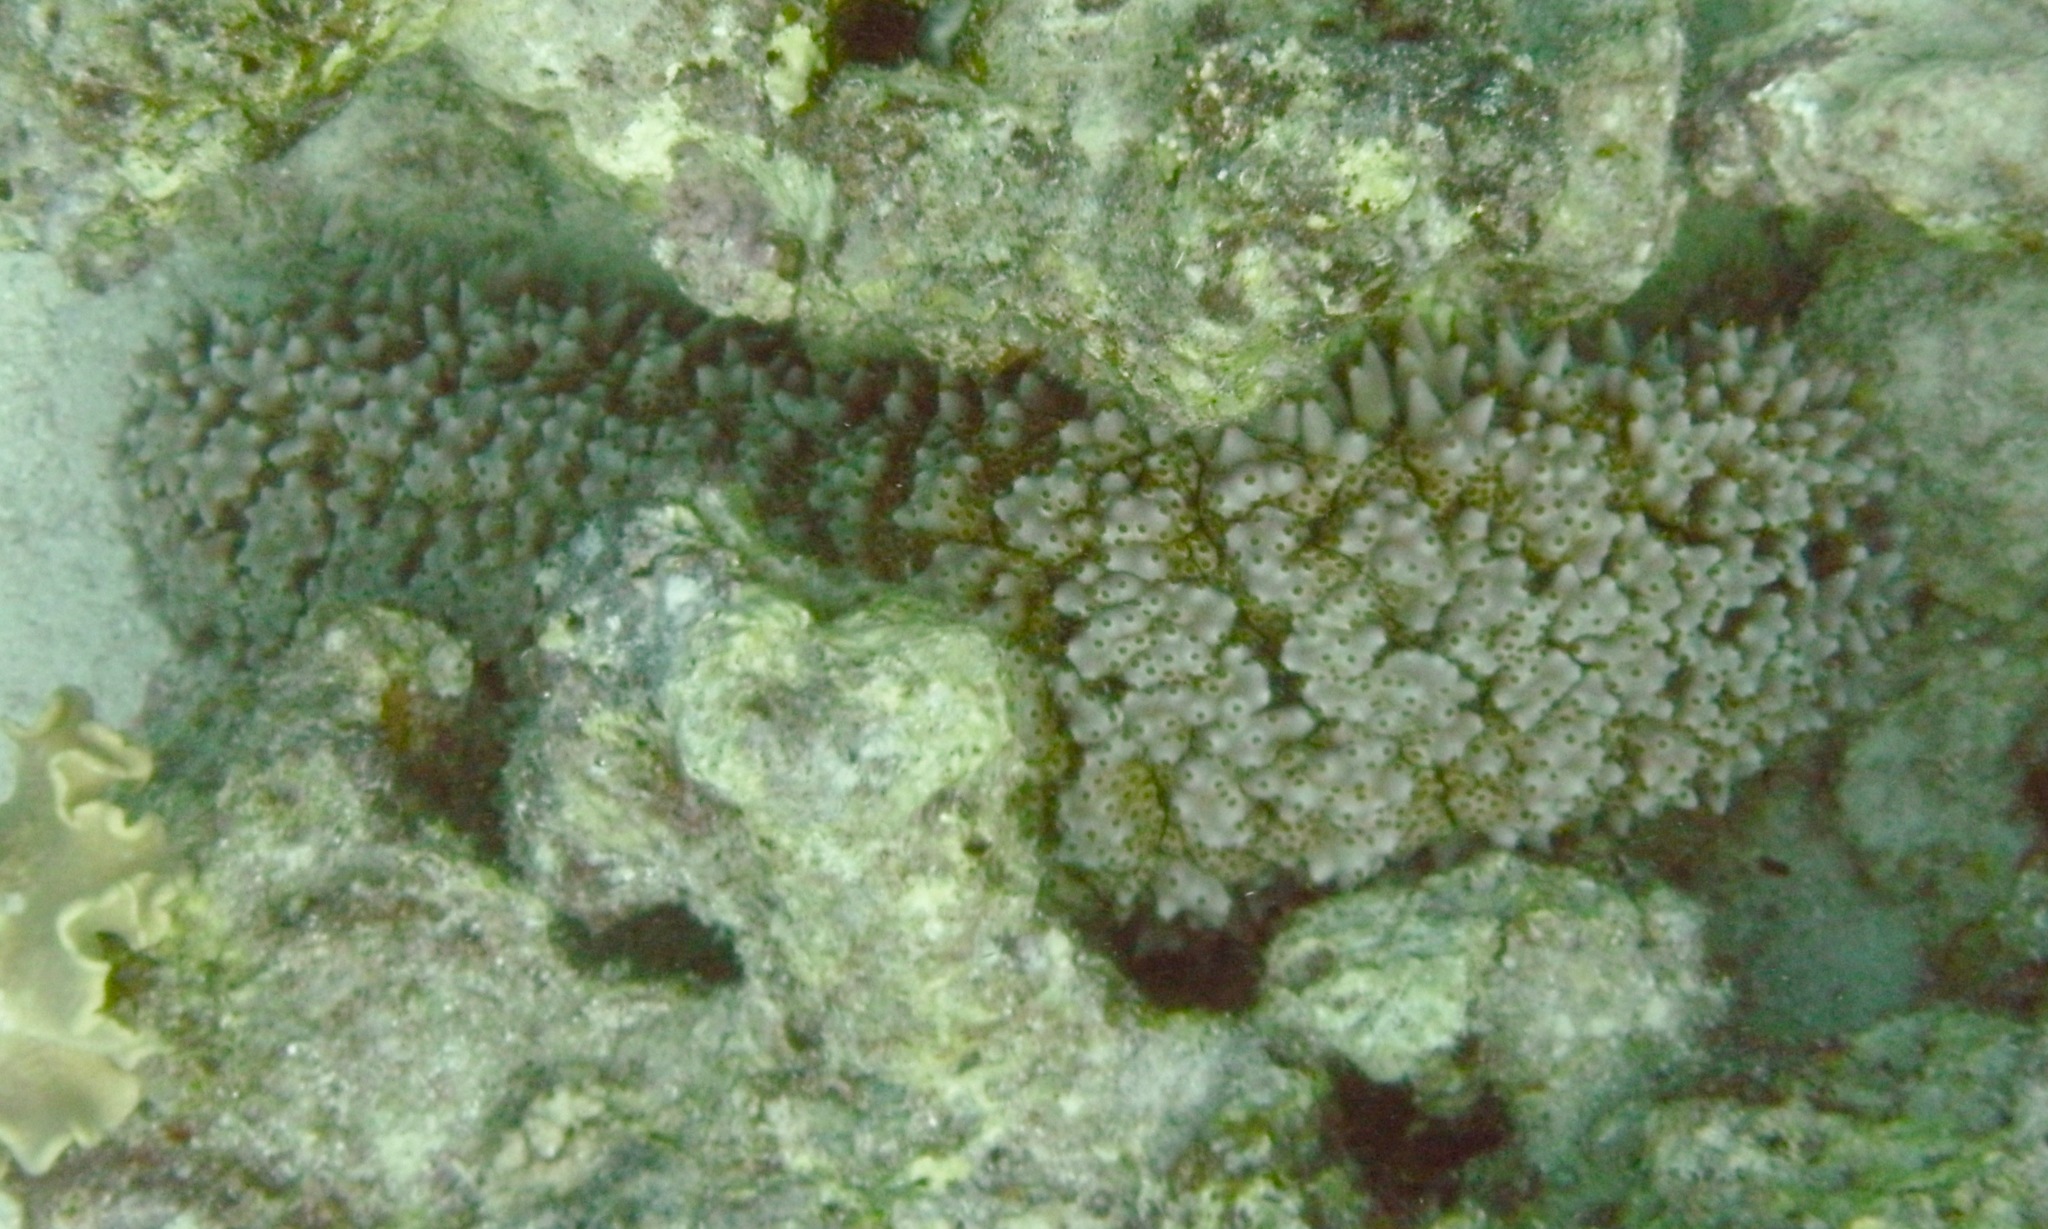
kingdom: Animalia
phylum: Echinodermata
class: Holothuroidea
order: Synallactida
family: Stichopodidae
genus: Thelenota
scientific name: Thelenota ananas
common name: Prickly redfish
